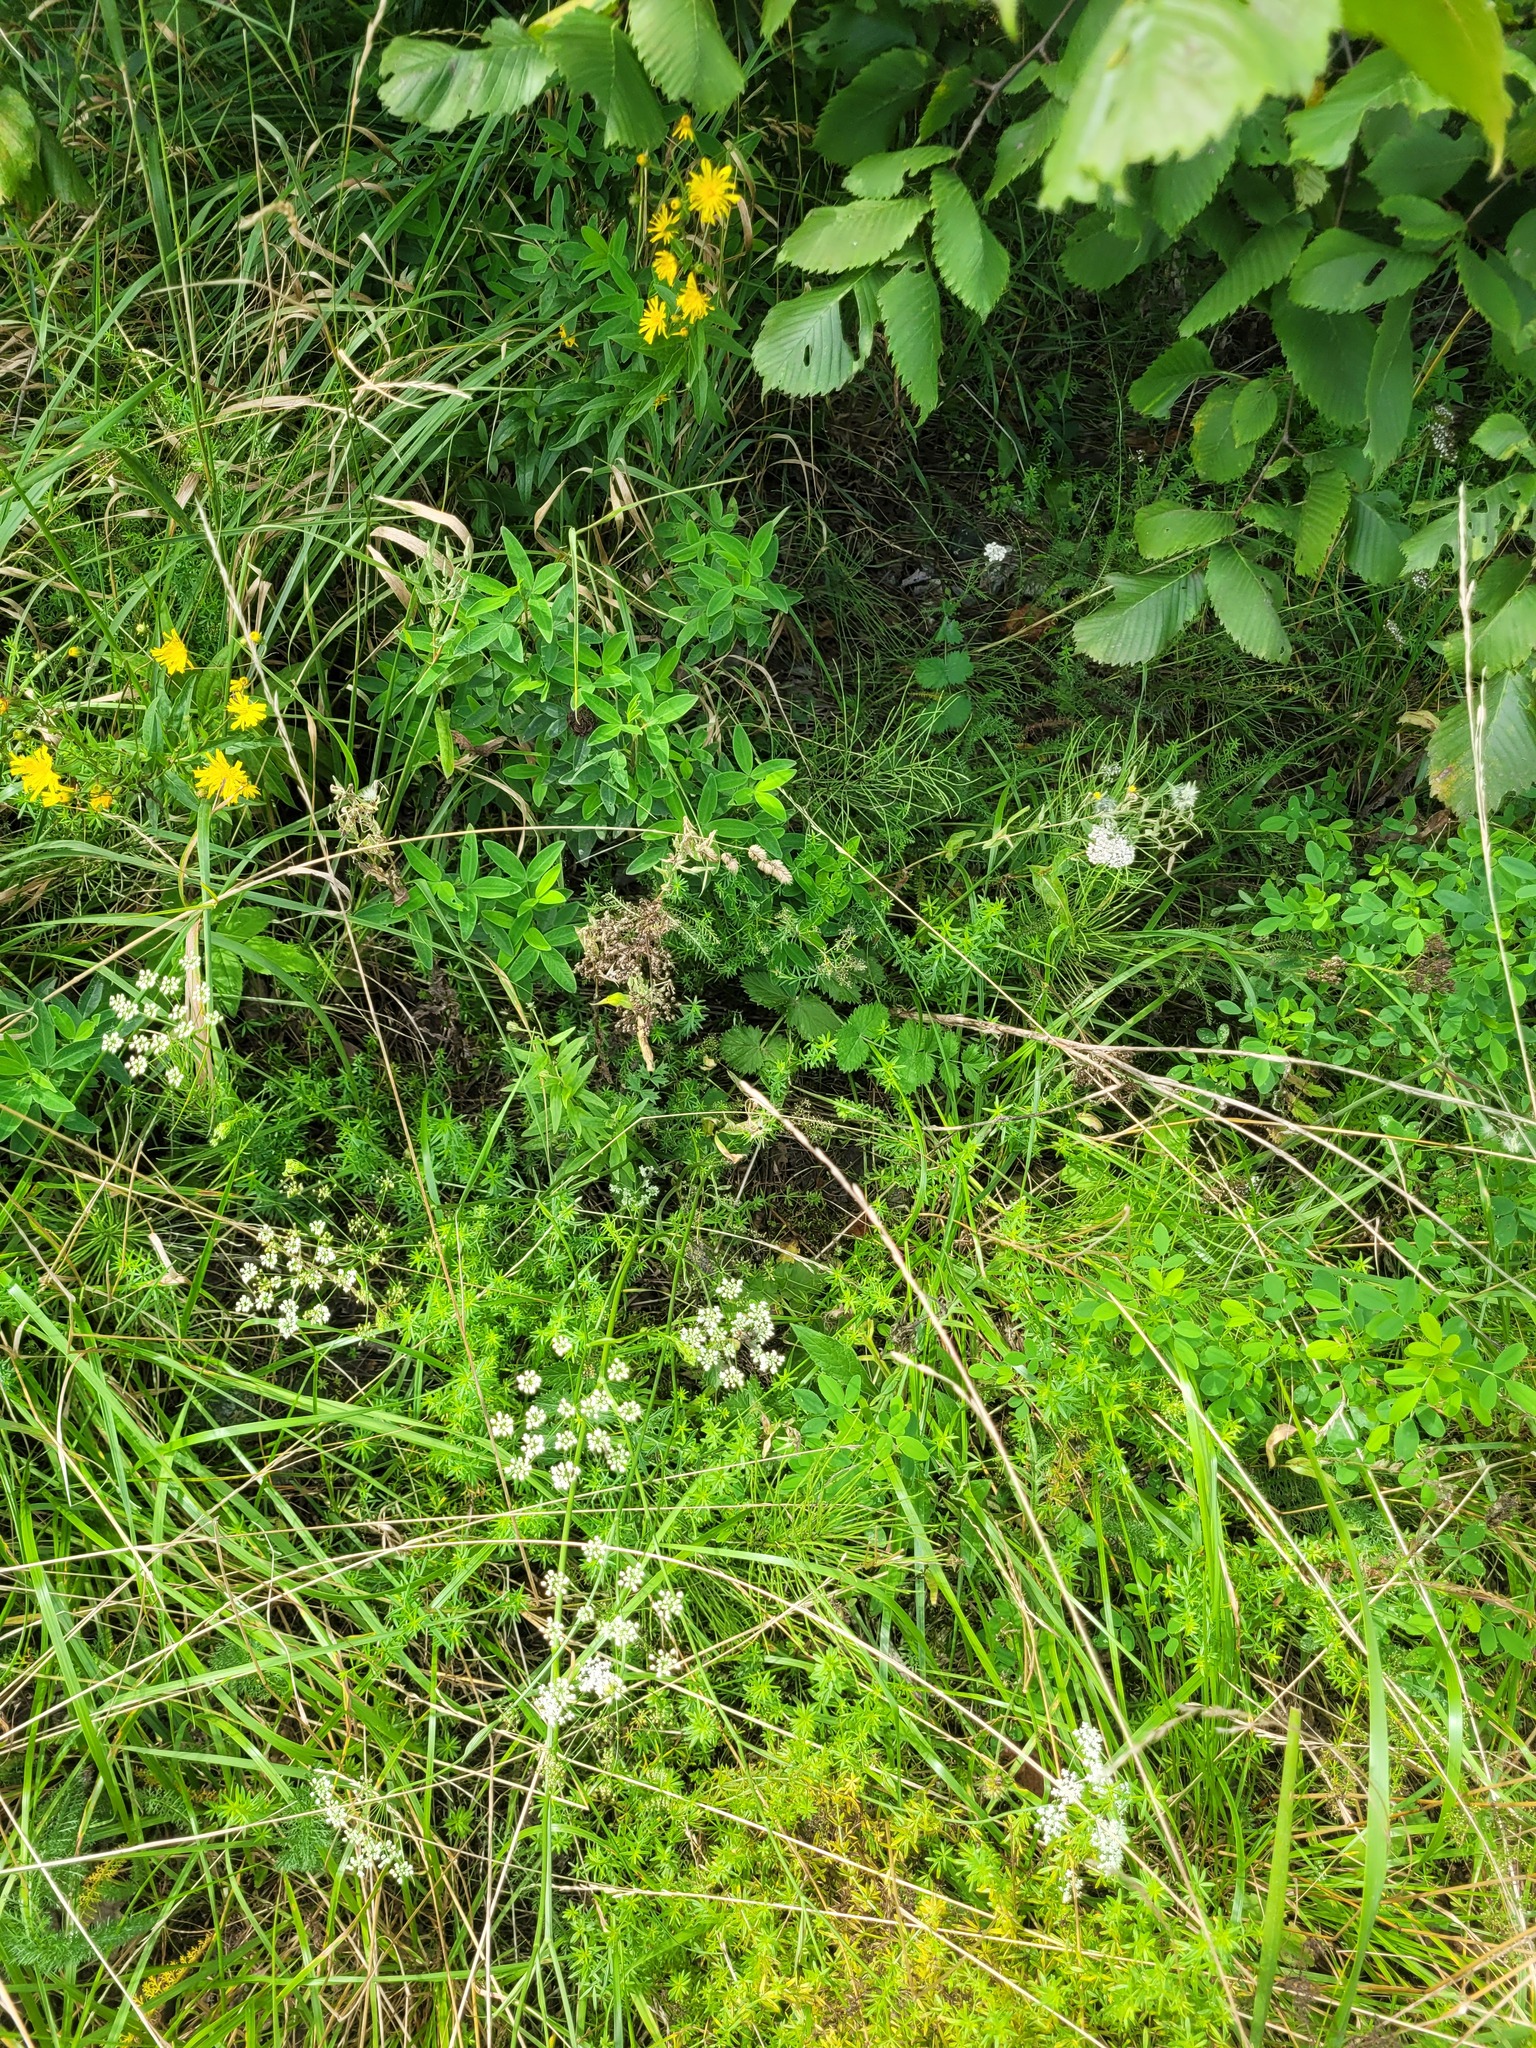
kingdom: Plantae
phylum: Tracheophyta
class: Magnoliopsida
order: Apiales
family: Apiaceae
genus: Pimpinella
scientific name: Pimpinella saxifraga
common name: Burnet-saxifrage
